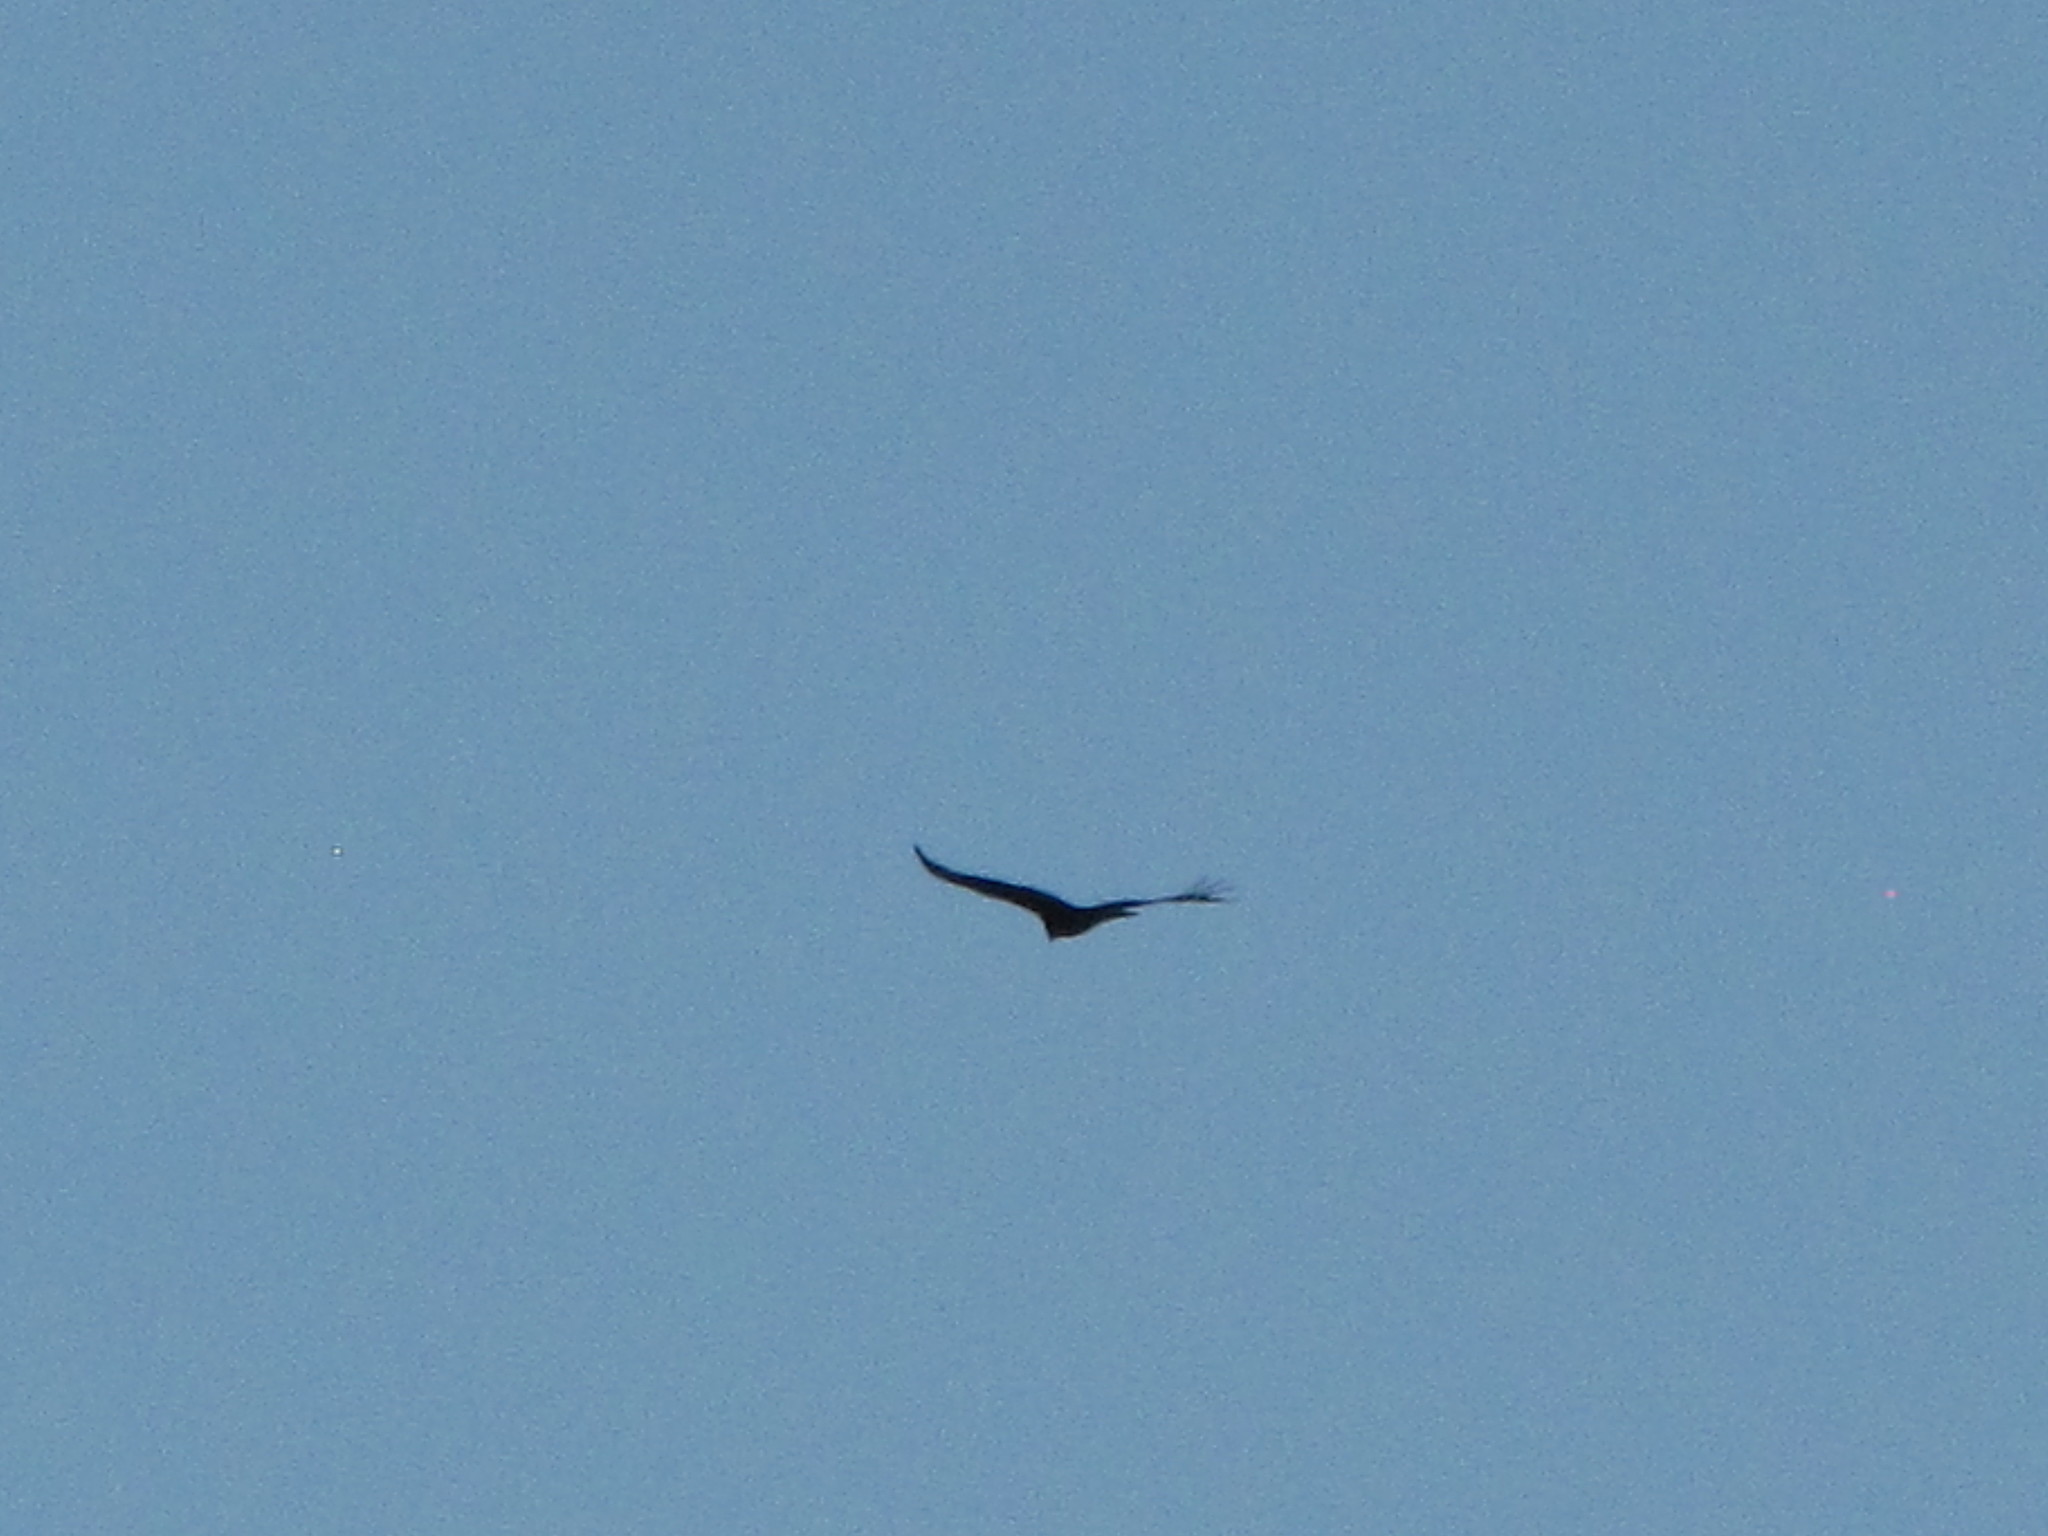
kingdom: Animalia
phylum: Chordata
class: Aves
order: Accipitriformes
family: Cathartidae
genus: Cathartes
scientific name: Cathartes aura
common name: Turkey vulture
